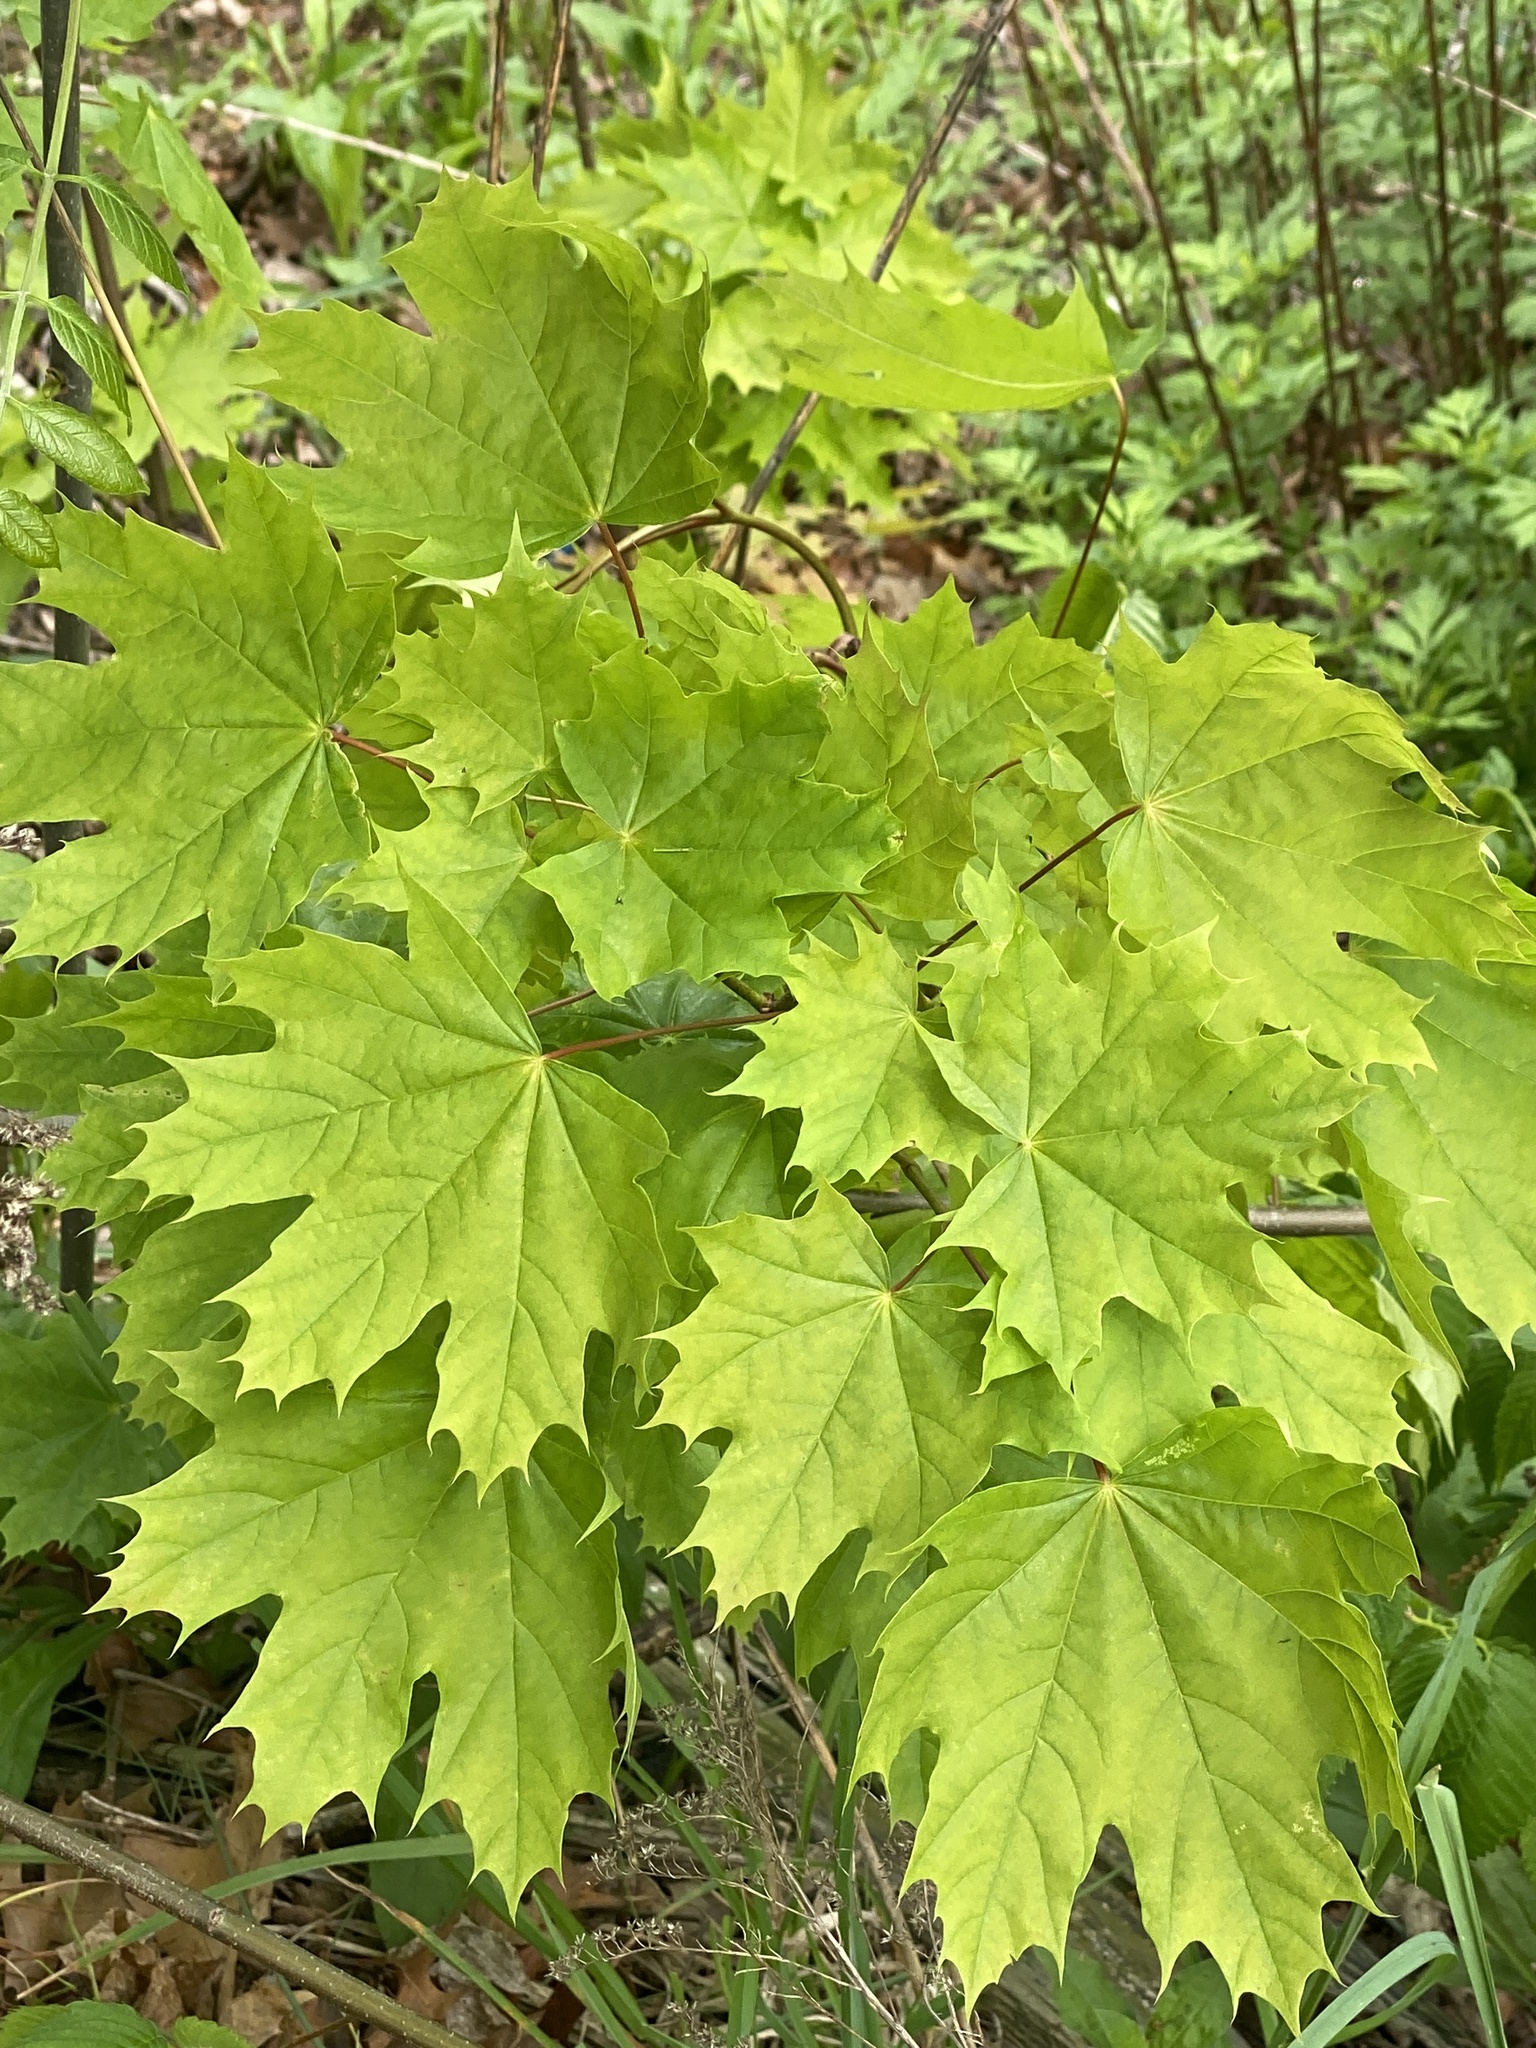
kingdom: Plantae
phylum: Tracheophyta
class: Magnoliopsida
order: Sapindales
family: Sapindaceae
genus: Acer
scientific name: Acer platanoides
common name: Norway maple
